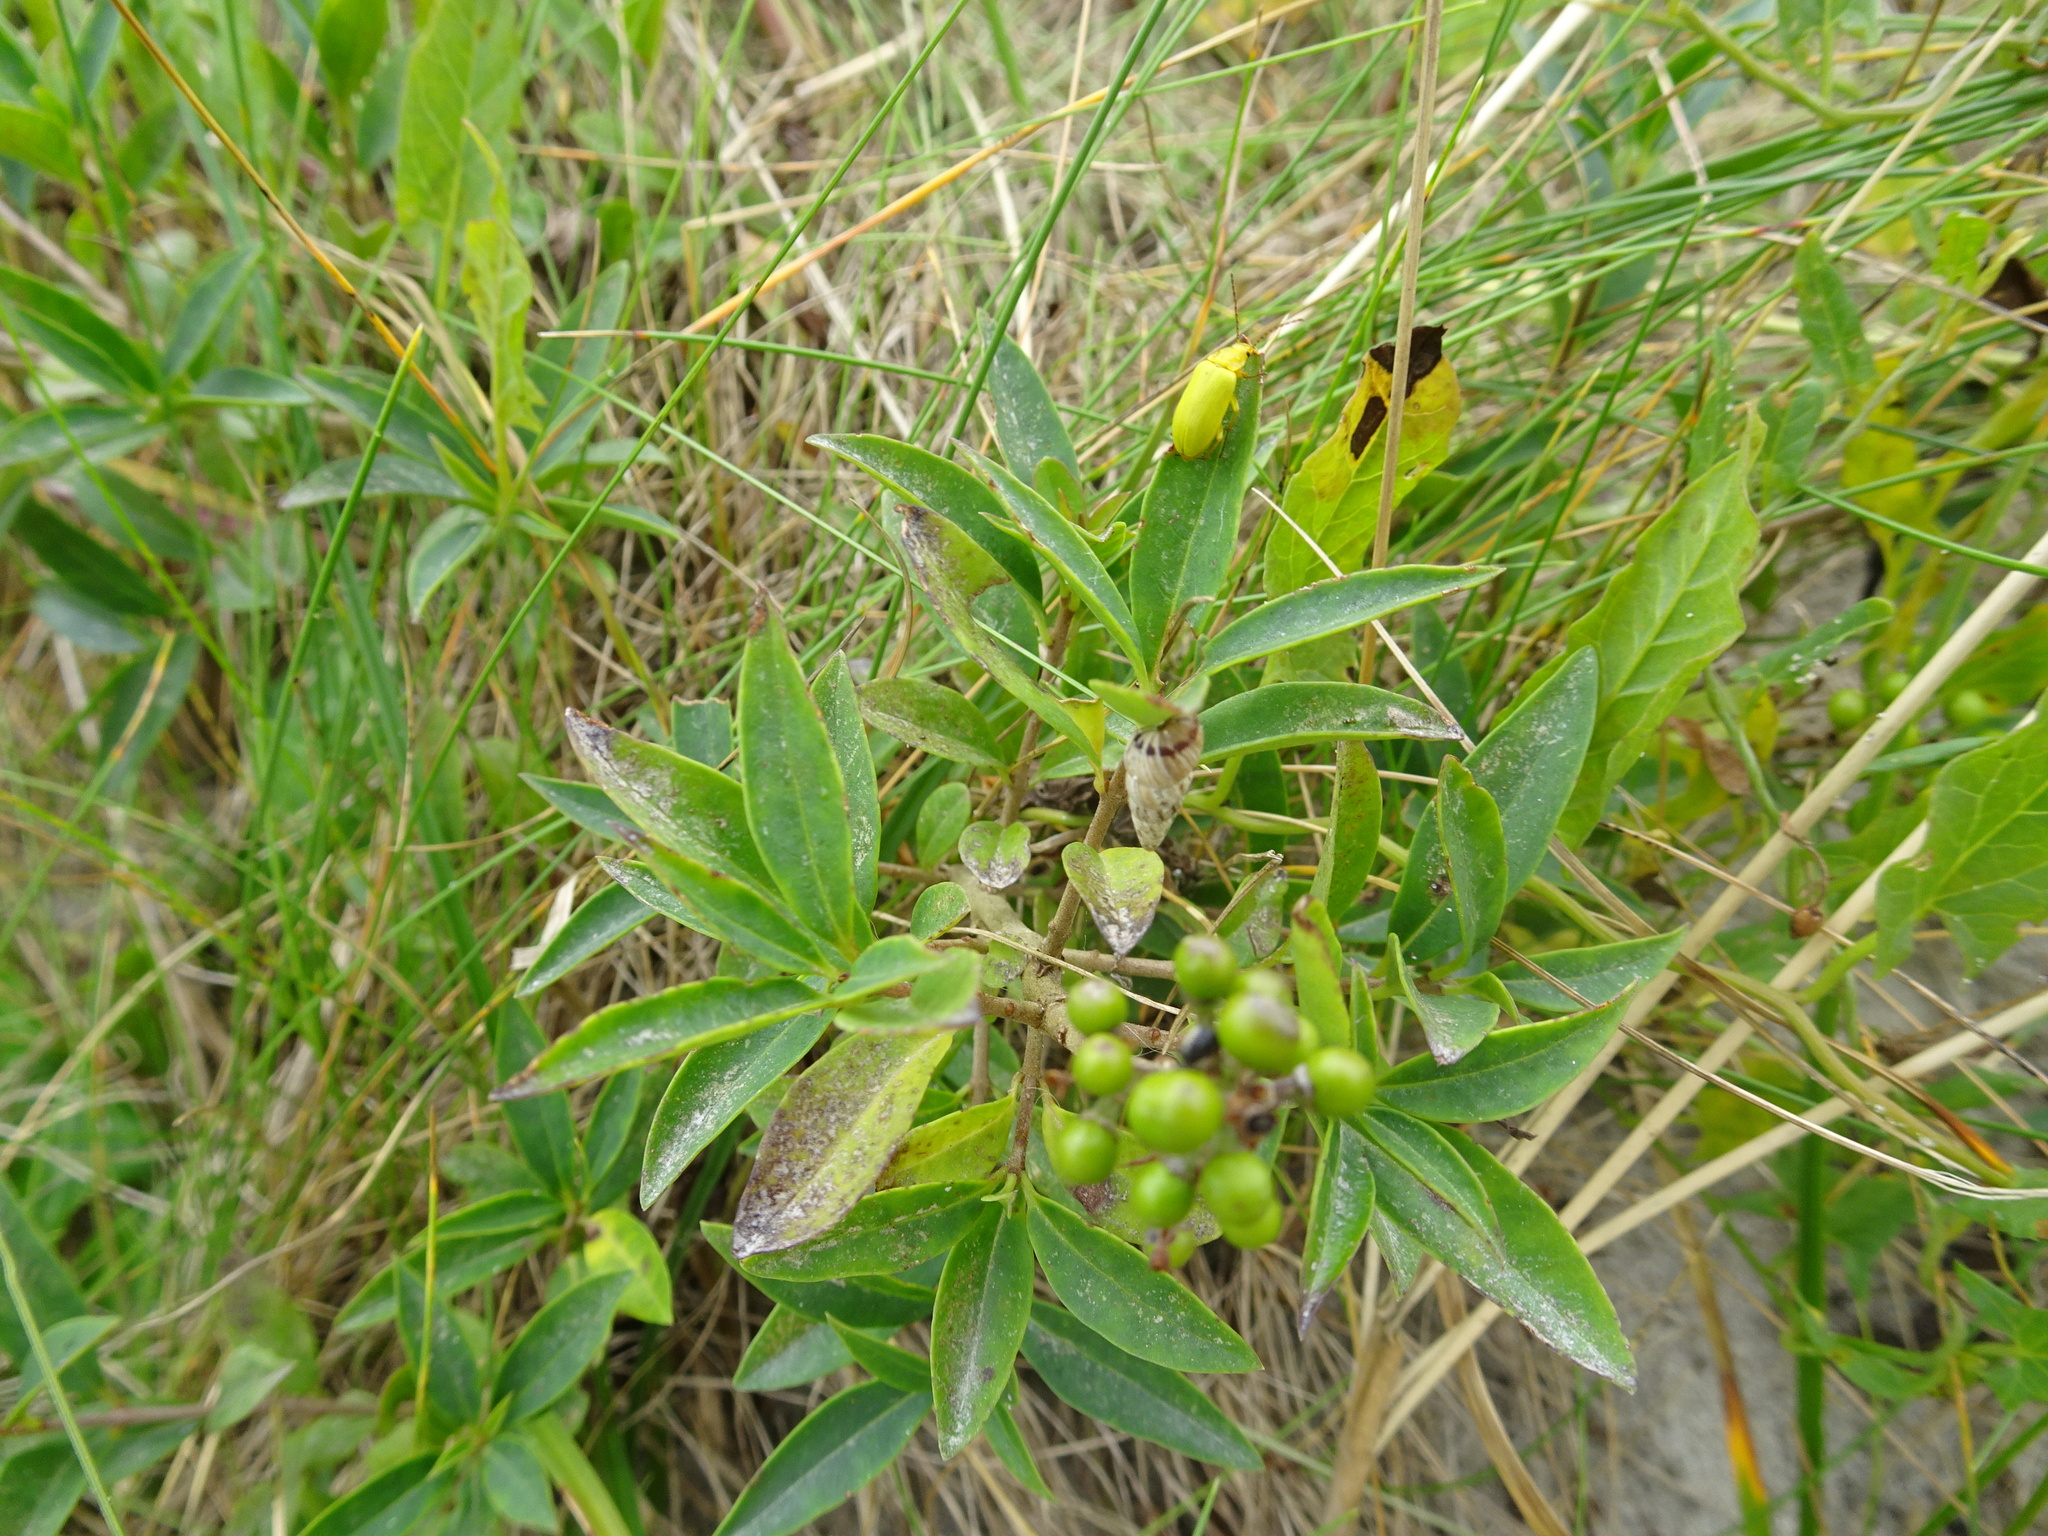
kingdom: Plantae
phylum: Tracheophyta
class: Magnoliopsida
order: Lamiales
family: Oleaceae
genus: Ligustrum
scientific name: Ligustrum vulgare
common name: Wild privet
